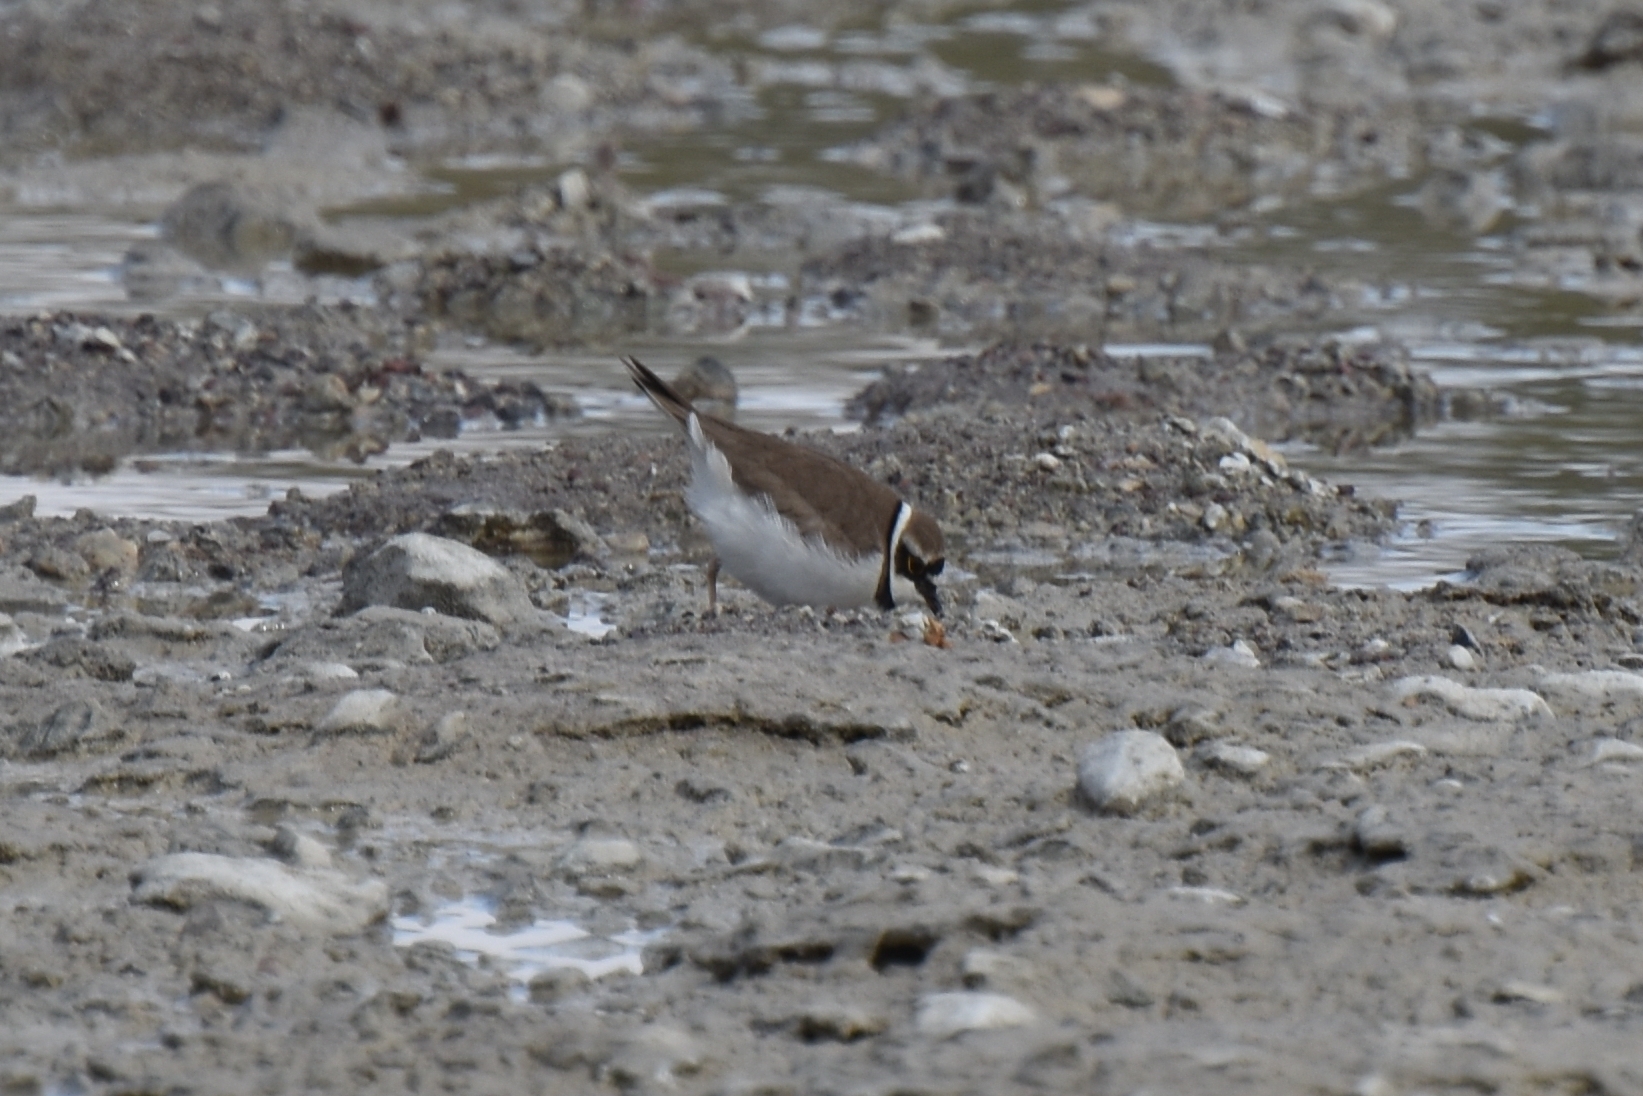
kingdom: Animalia
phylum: Chordata
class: Aves
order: Charadriiformes
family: Charadriidae
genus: Charadrius
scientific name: Charadrius dubius
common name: Little ringed plover
